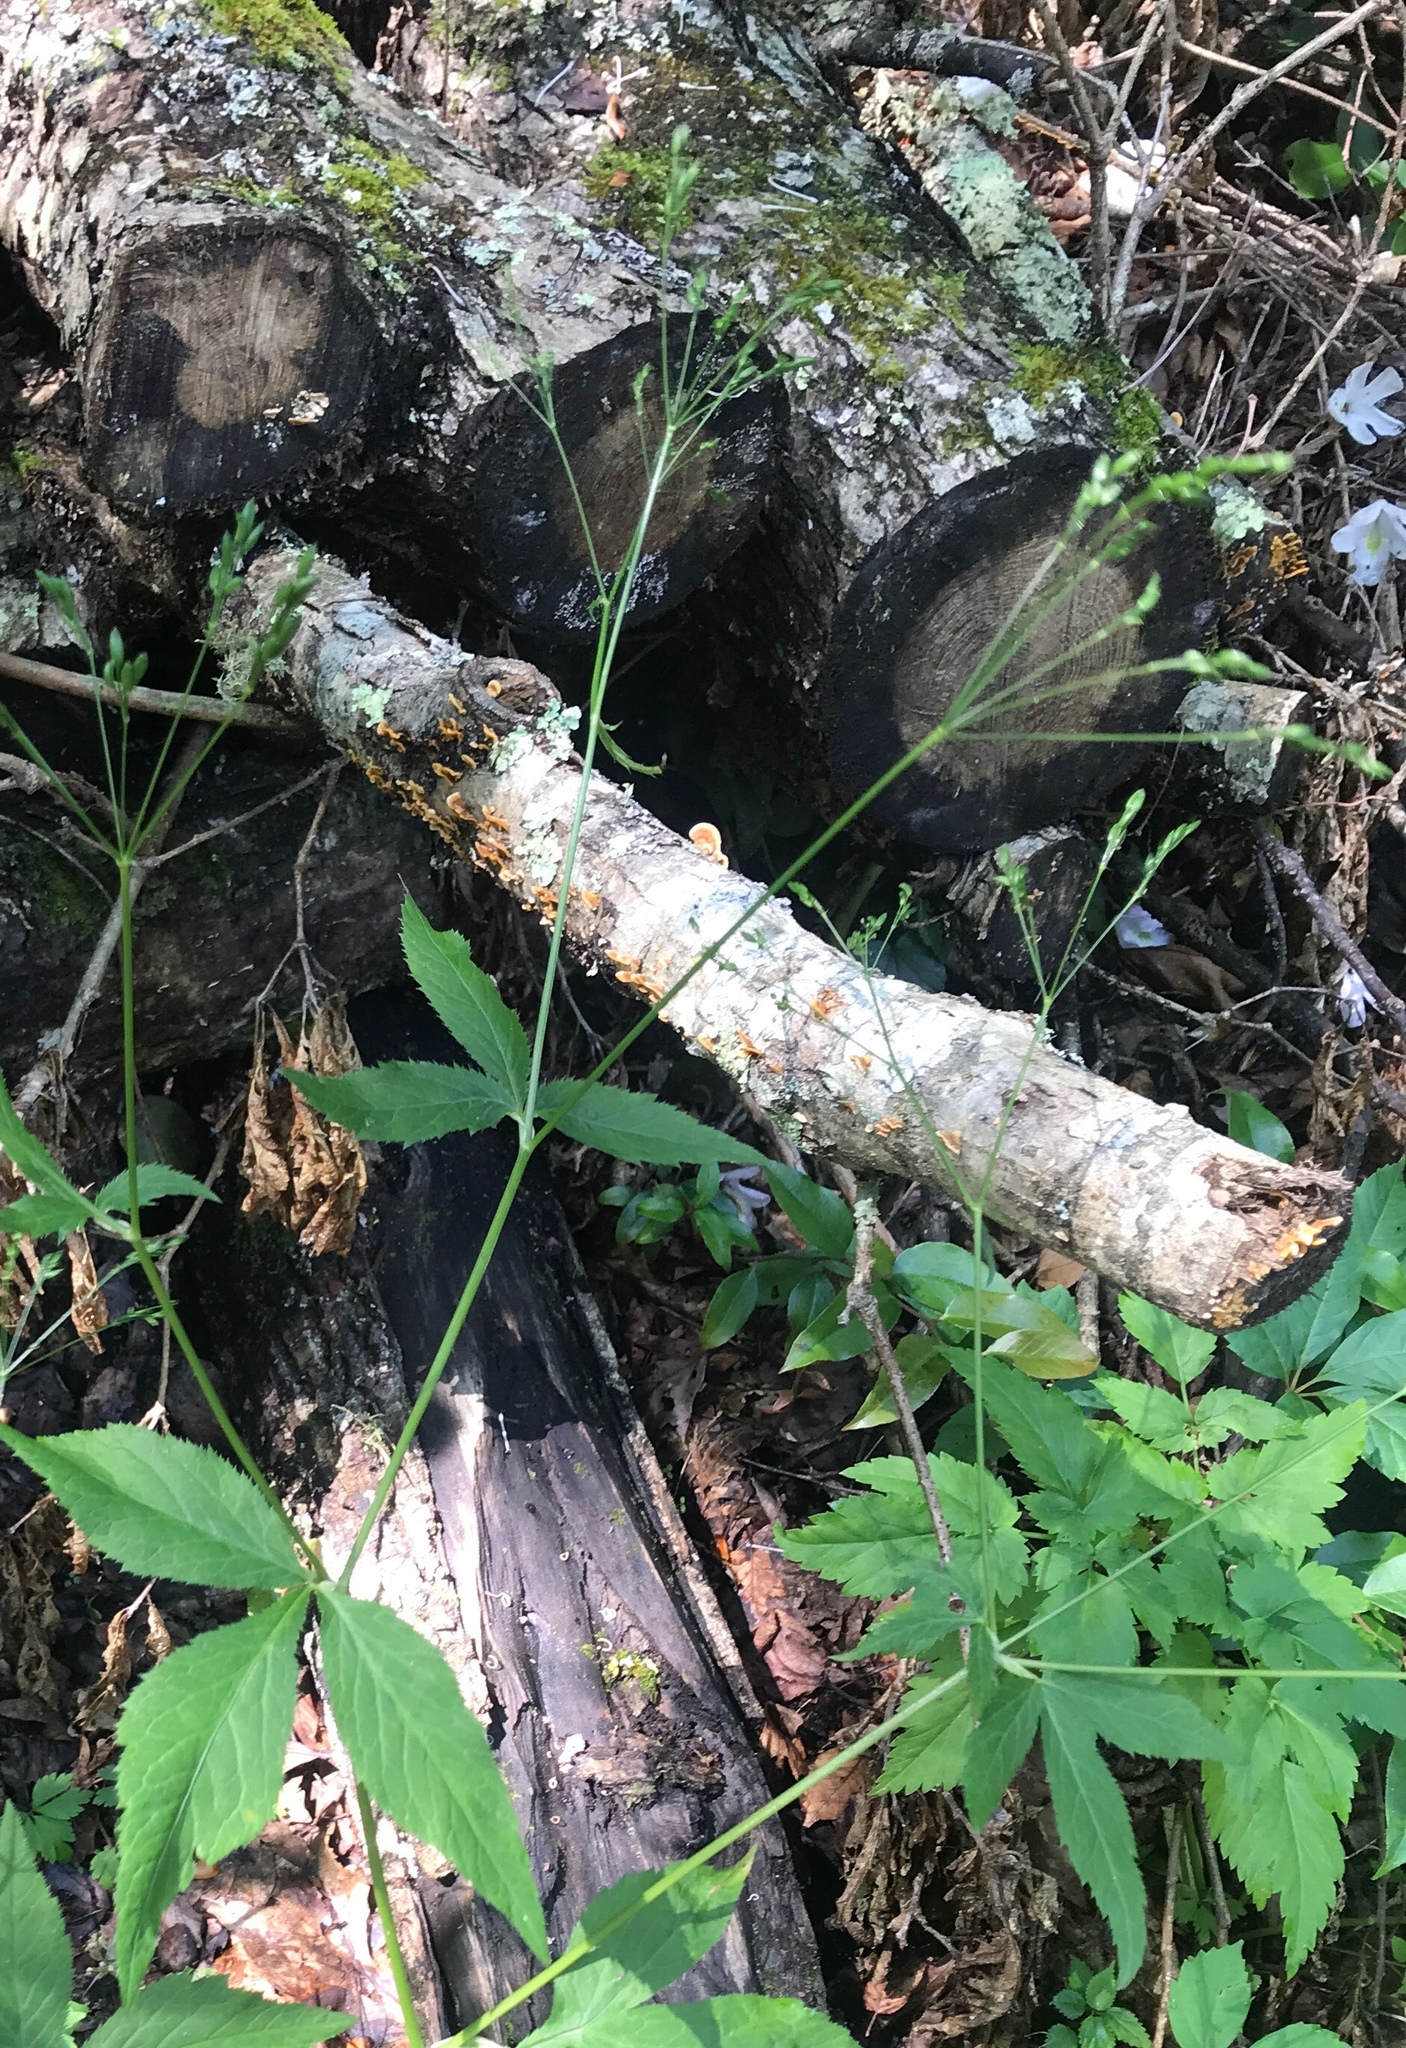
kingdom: Plantae
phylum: Tracheophyta
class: Magnoliopsida
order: Apiales
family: Apiaceae
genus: Cryptotaenia
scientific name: Cryptotaenia canadensis
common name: Honewort
